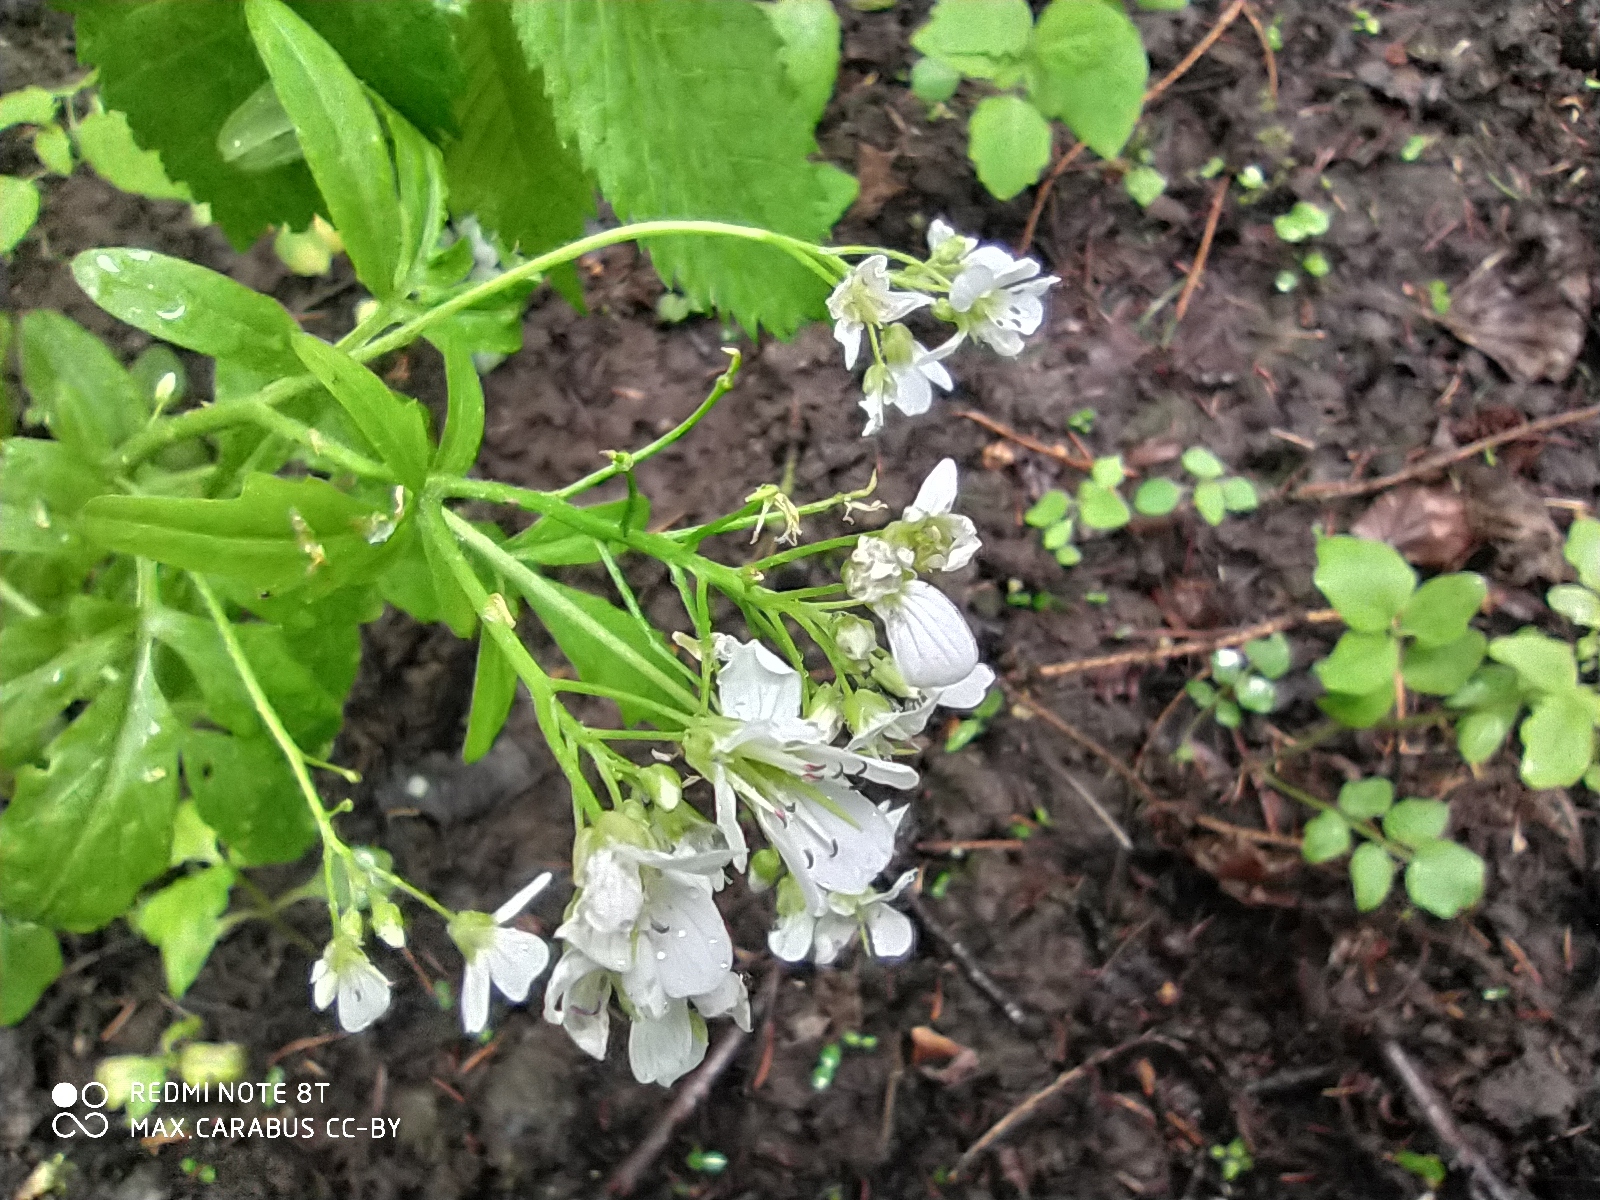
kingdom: Plantae
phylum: Tracheophyta
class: Magnoliopsida
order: Brassicales
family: Brassicaceae
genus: Cardamine
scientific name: Cardamine amara
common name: Large bitter-cress
